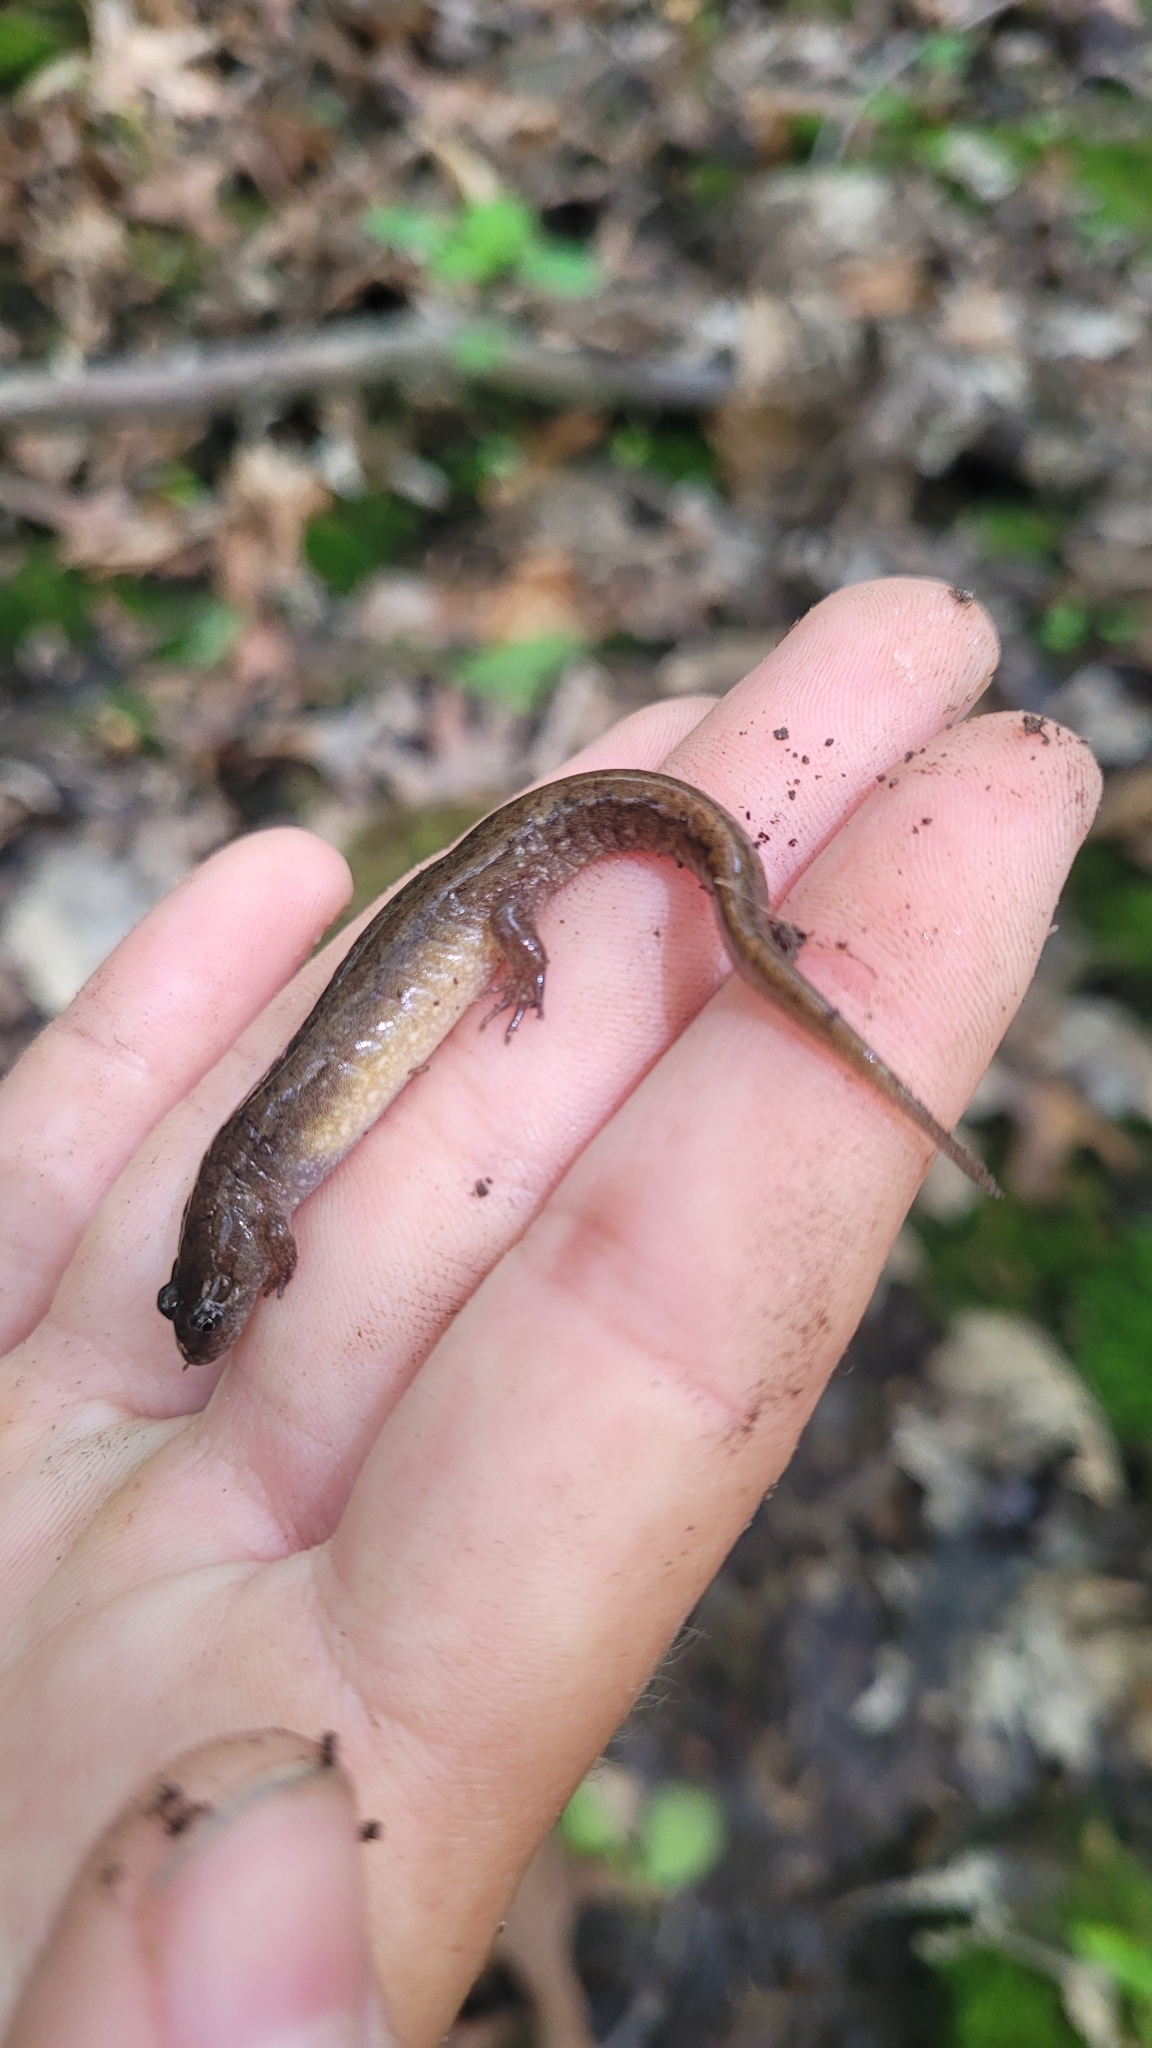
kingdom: Animalia
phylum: Chordata
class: Amphibia
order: Caudata
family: Plethodontidae
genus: Desmognathus
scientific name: Desmognathus fuscus
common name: Northern dusky salamander
